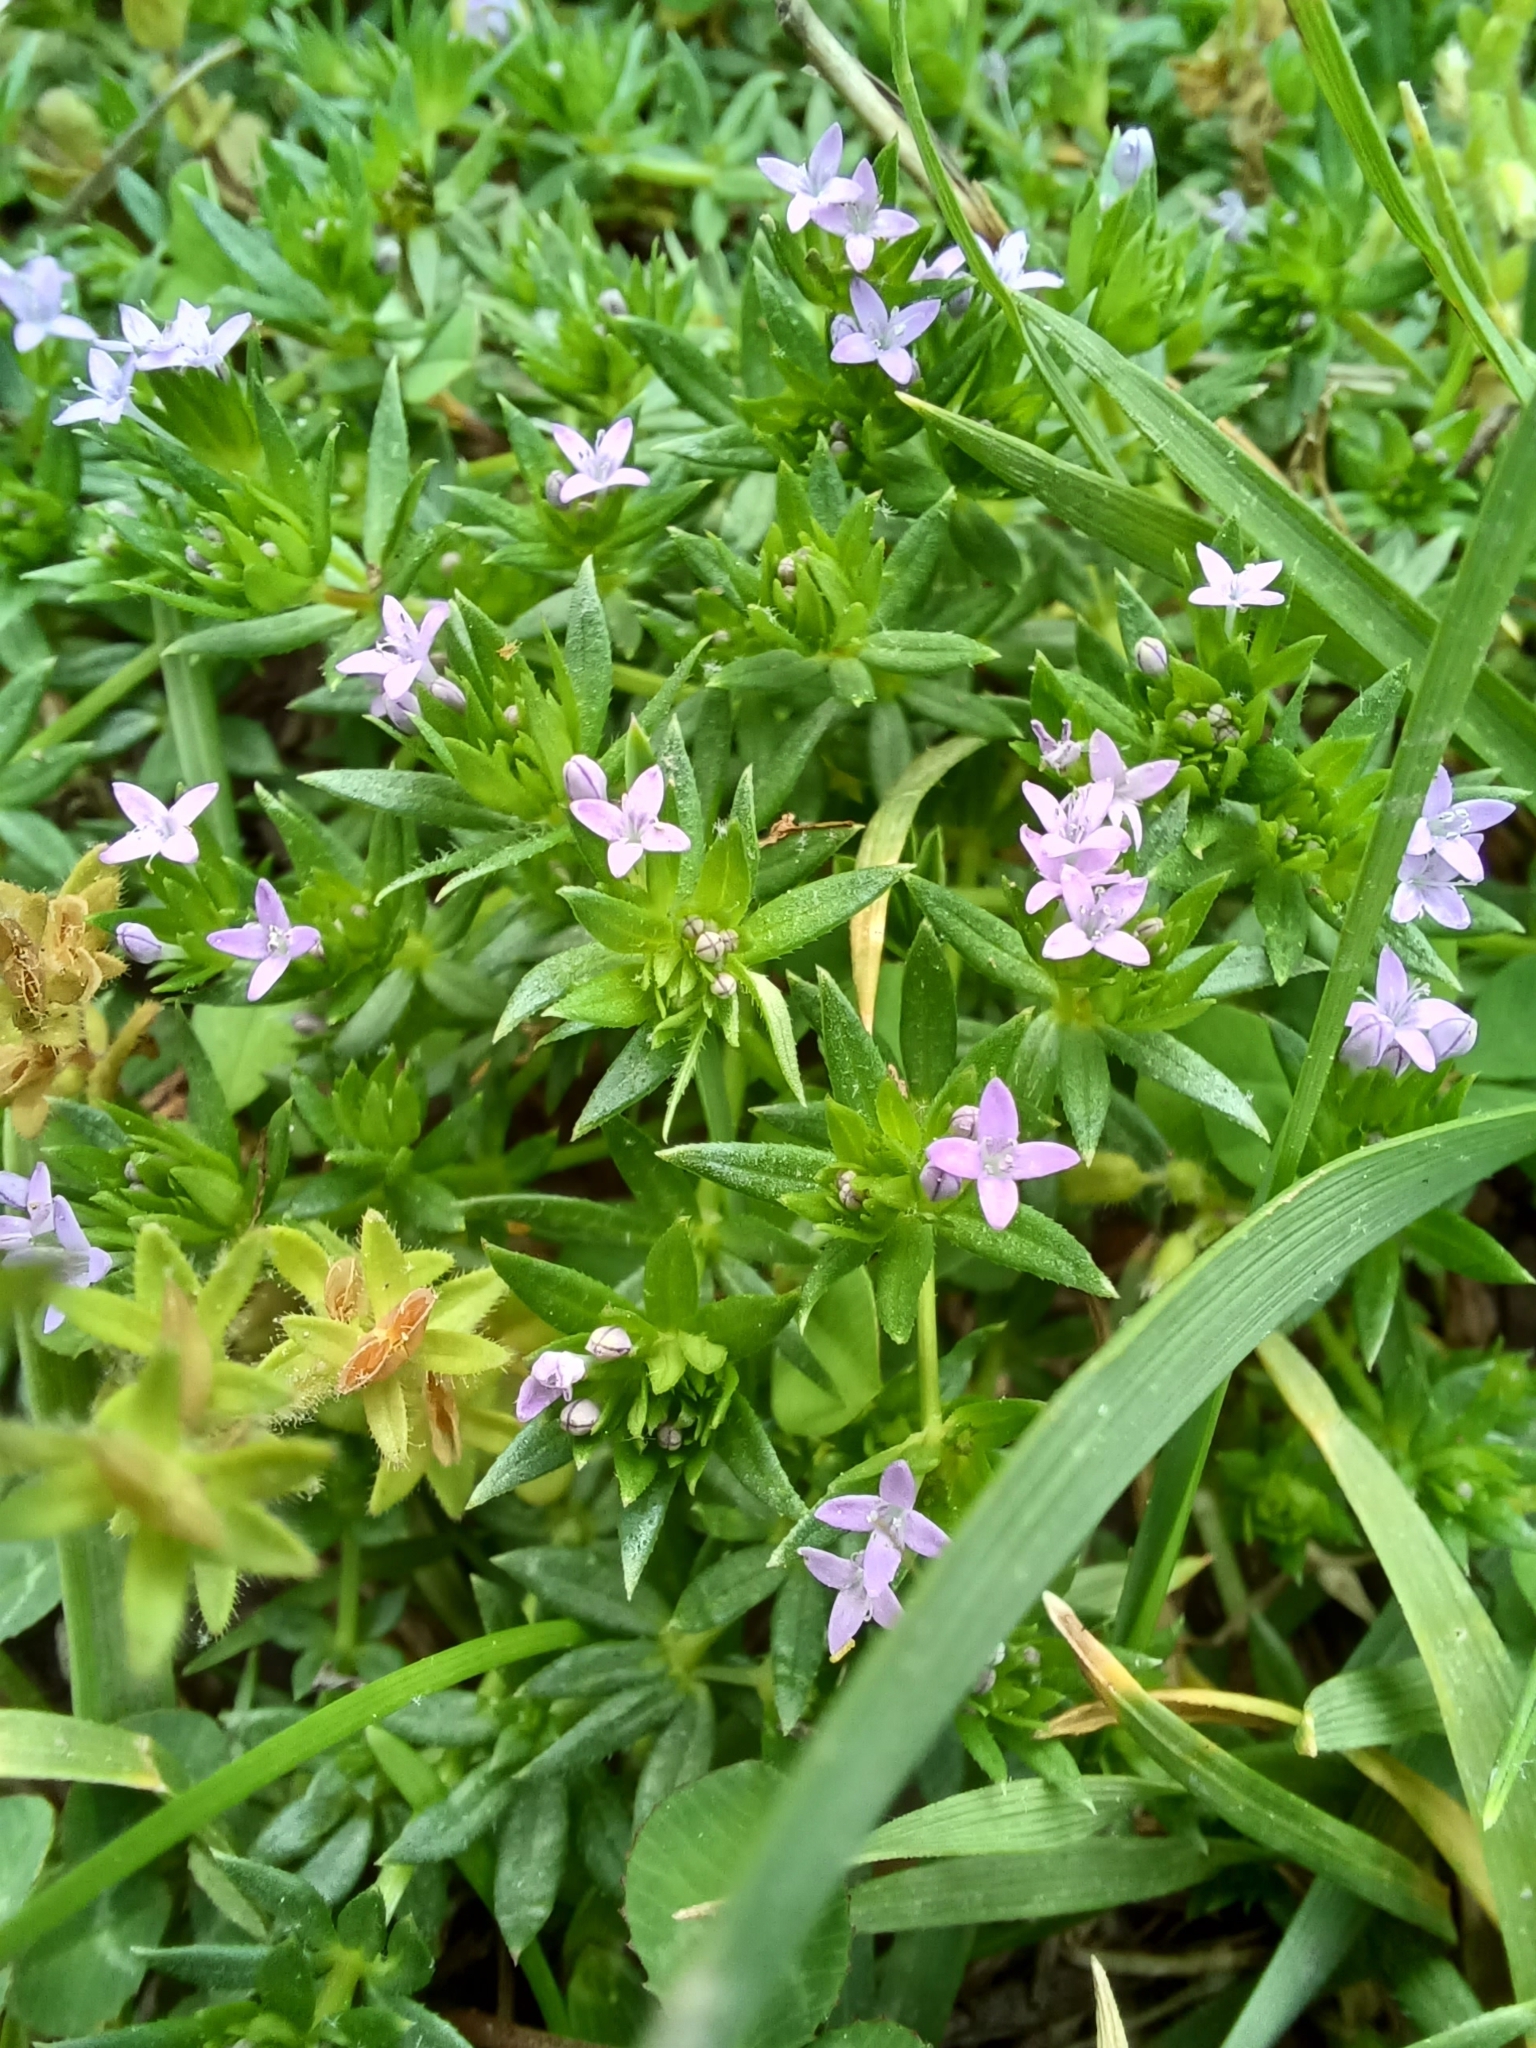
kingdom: Plantae
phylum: Tracheophyta
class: Magnoliopsida
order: Gentianales
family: Rubiaceae
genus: Sherardia
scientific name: Sherardia arvensis
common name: Field madder
